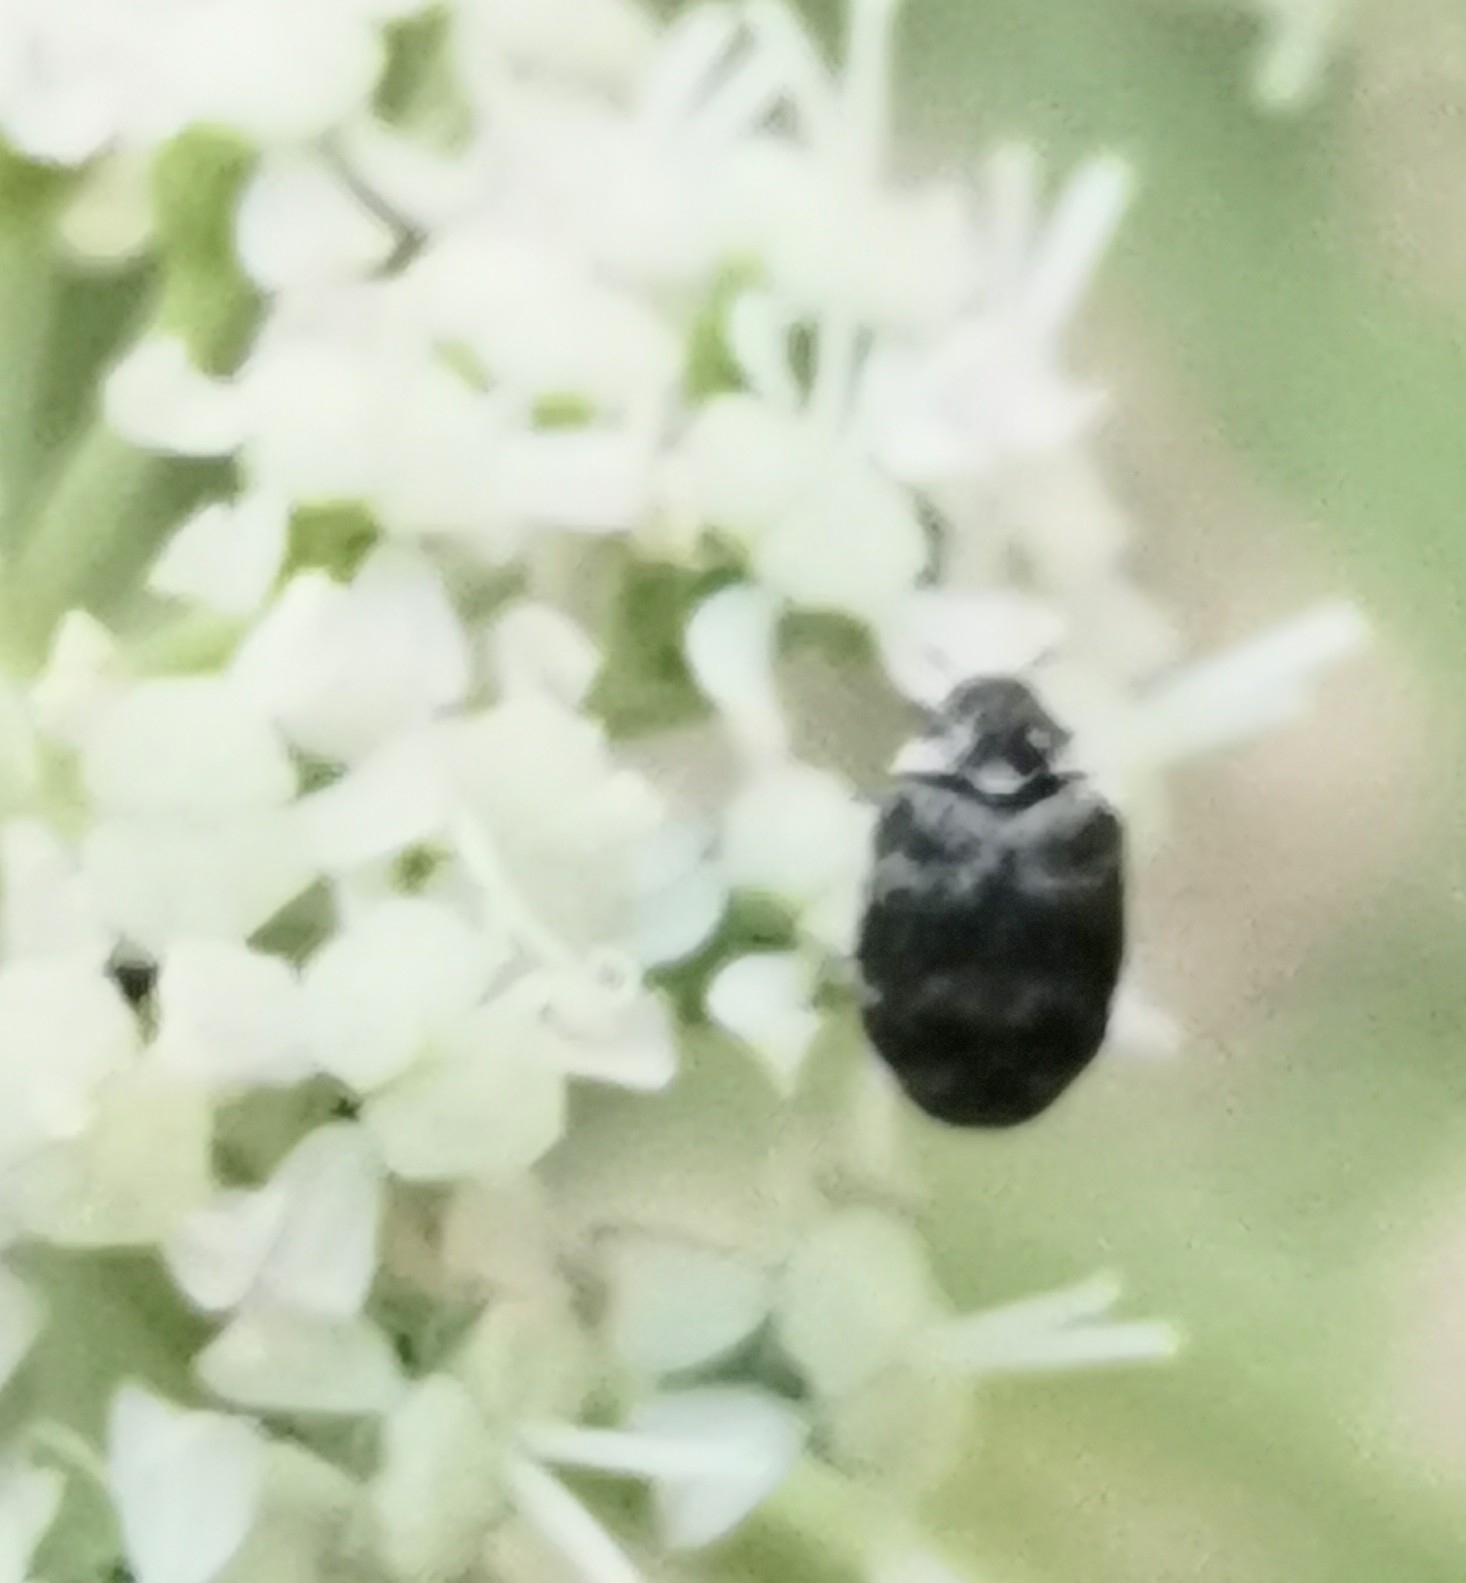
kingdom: Animalia
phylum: Arthropoda
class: Insecta
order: Coleoptera
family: Dermestidae
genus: Anthrenus
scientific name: Anthrenus museorum
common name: Museum beetle
